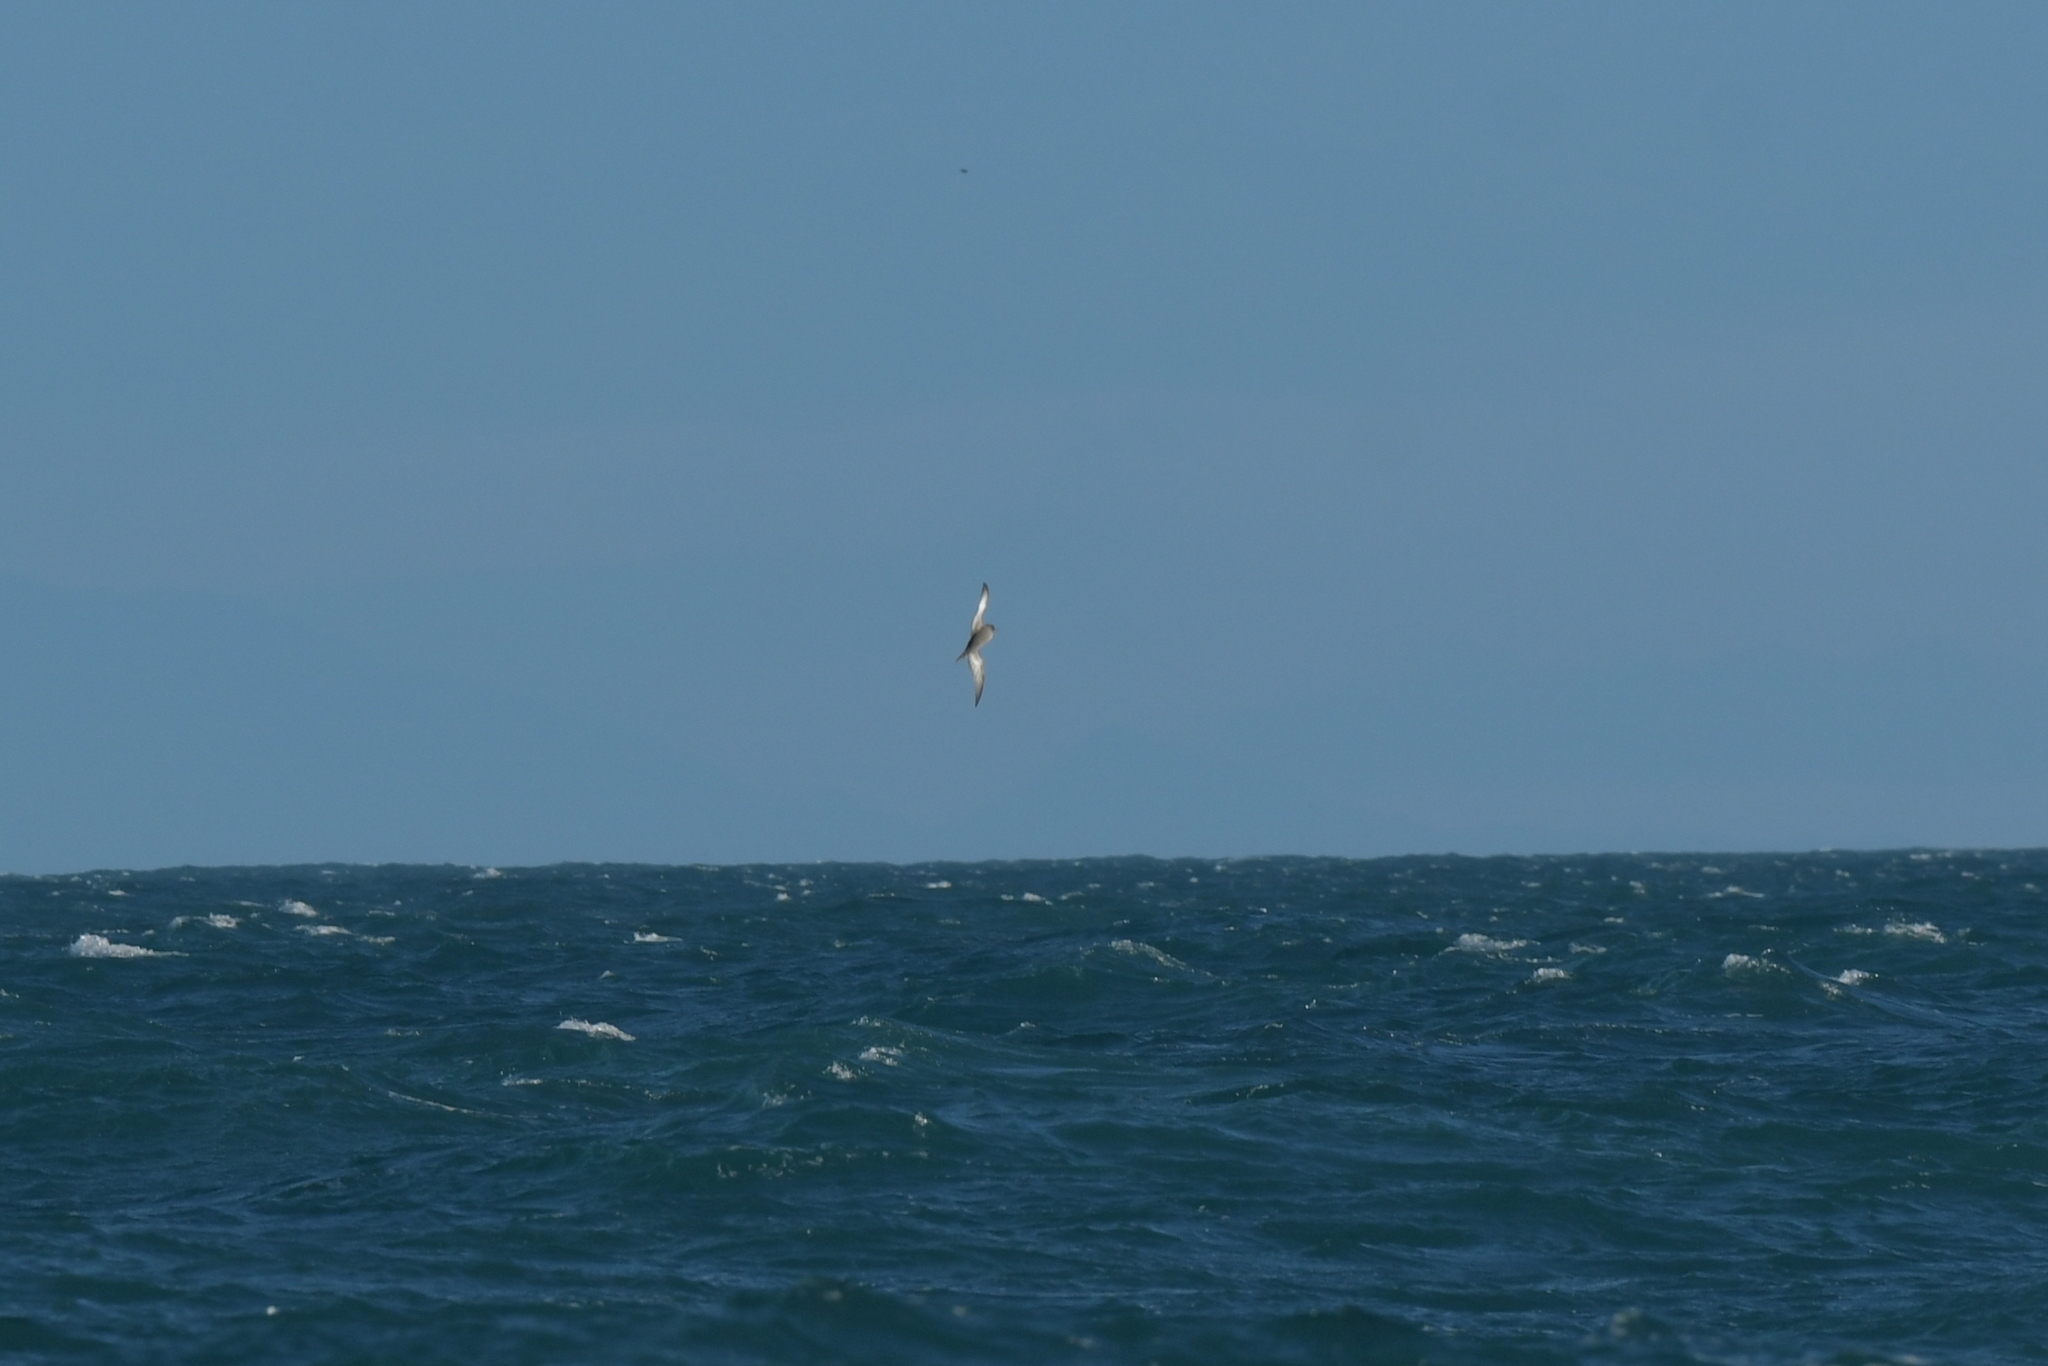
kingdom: Animalia
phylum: Chordata
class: Aves
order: Procellariiformes
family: Procellariidae
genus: Puffinus
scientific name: Puffinus griseus
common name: Sooty shearwater
